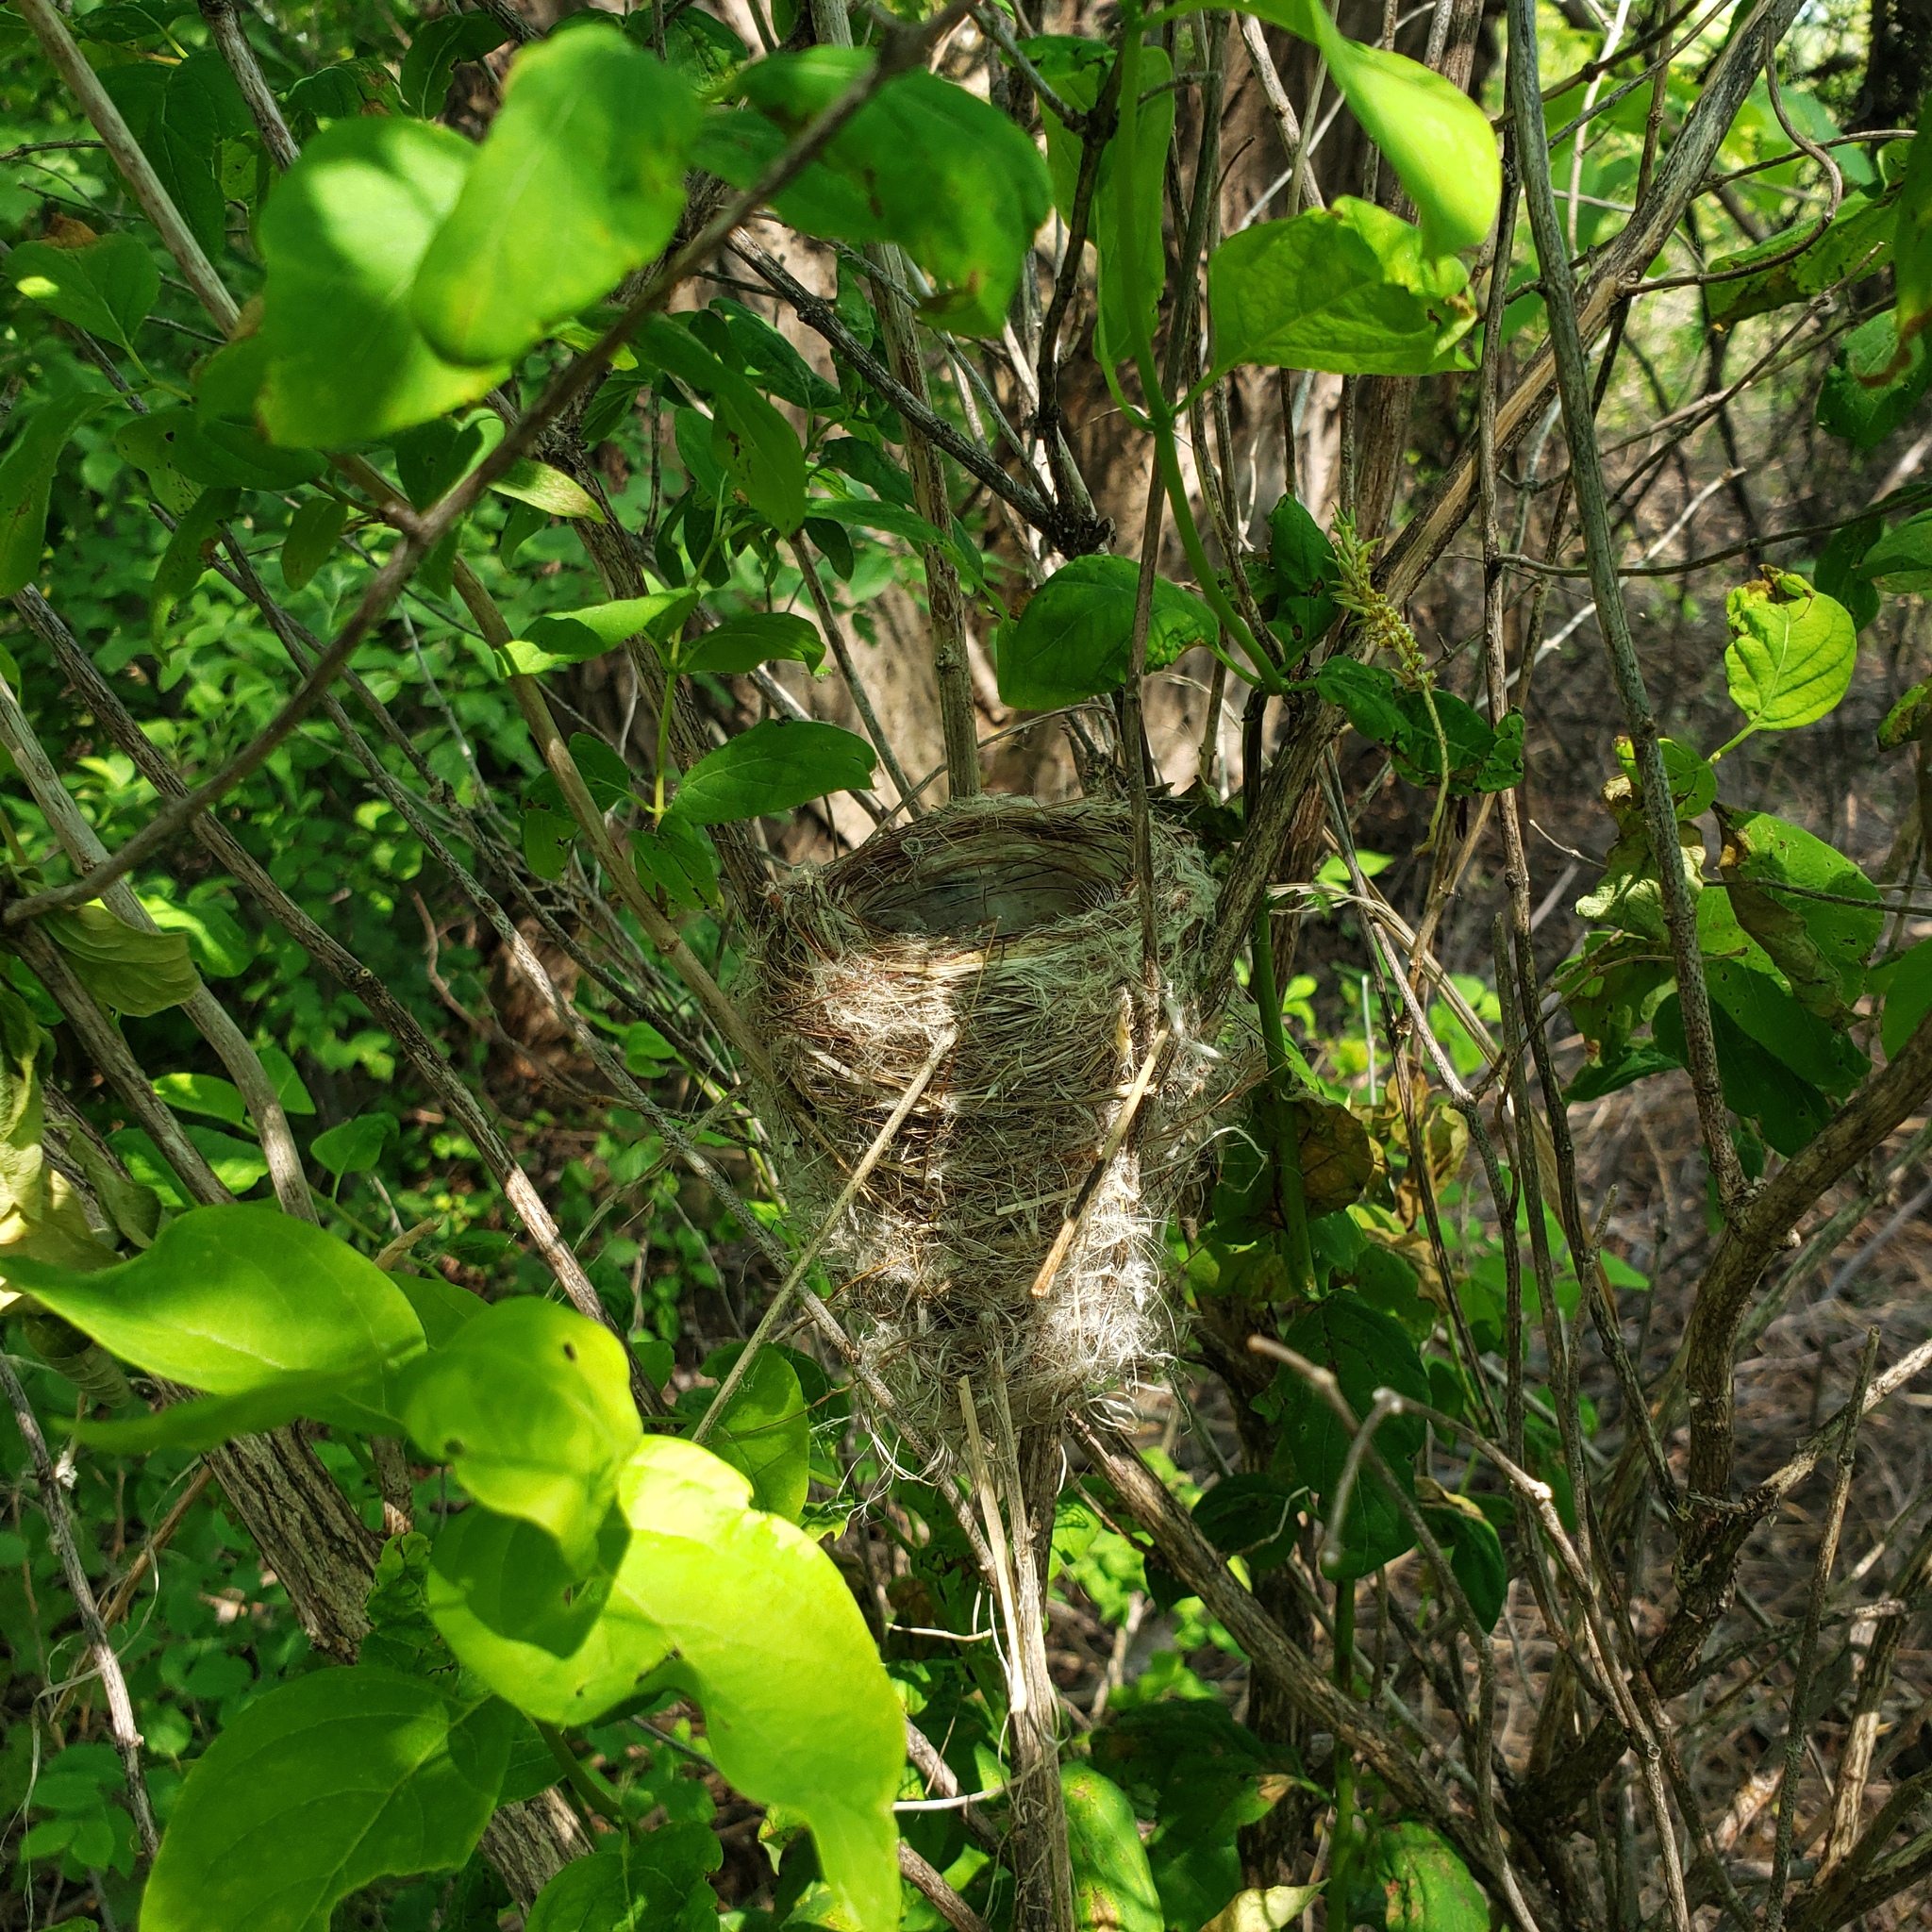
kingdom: Animalia
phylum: Chordata
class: Aves
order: Passeriformes
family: Parulidae
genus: Setophaga
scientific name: Setophaga petechia
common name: Yellow warbler
